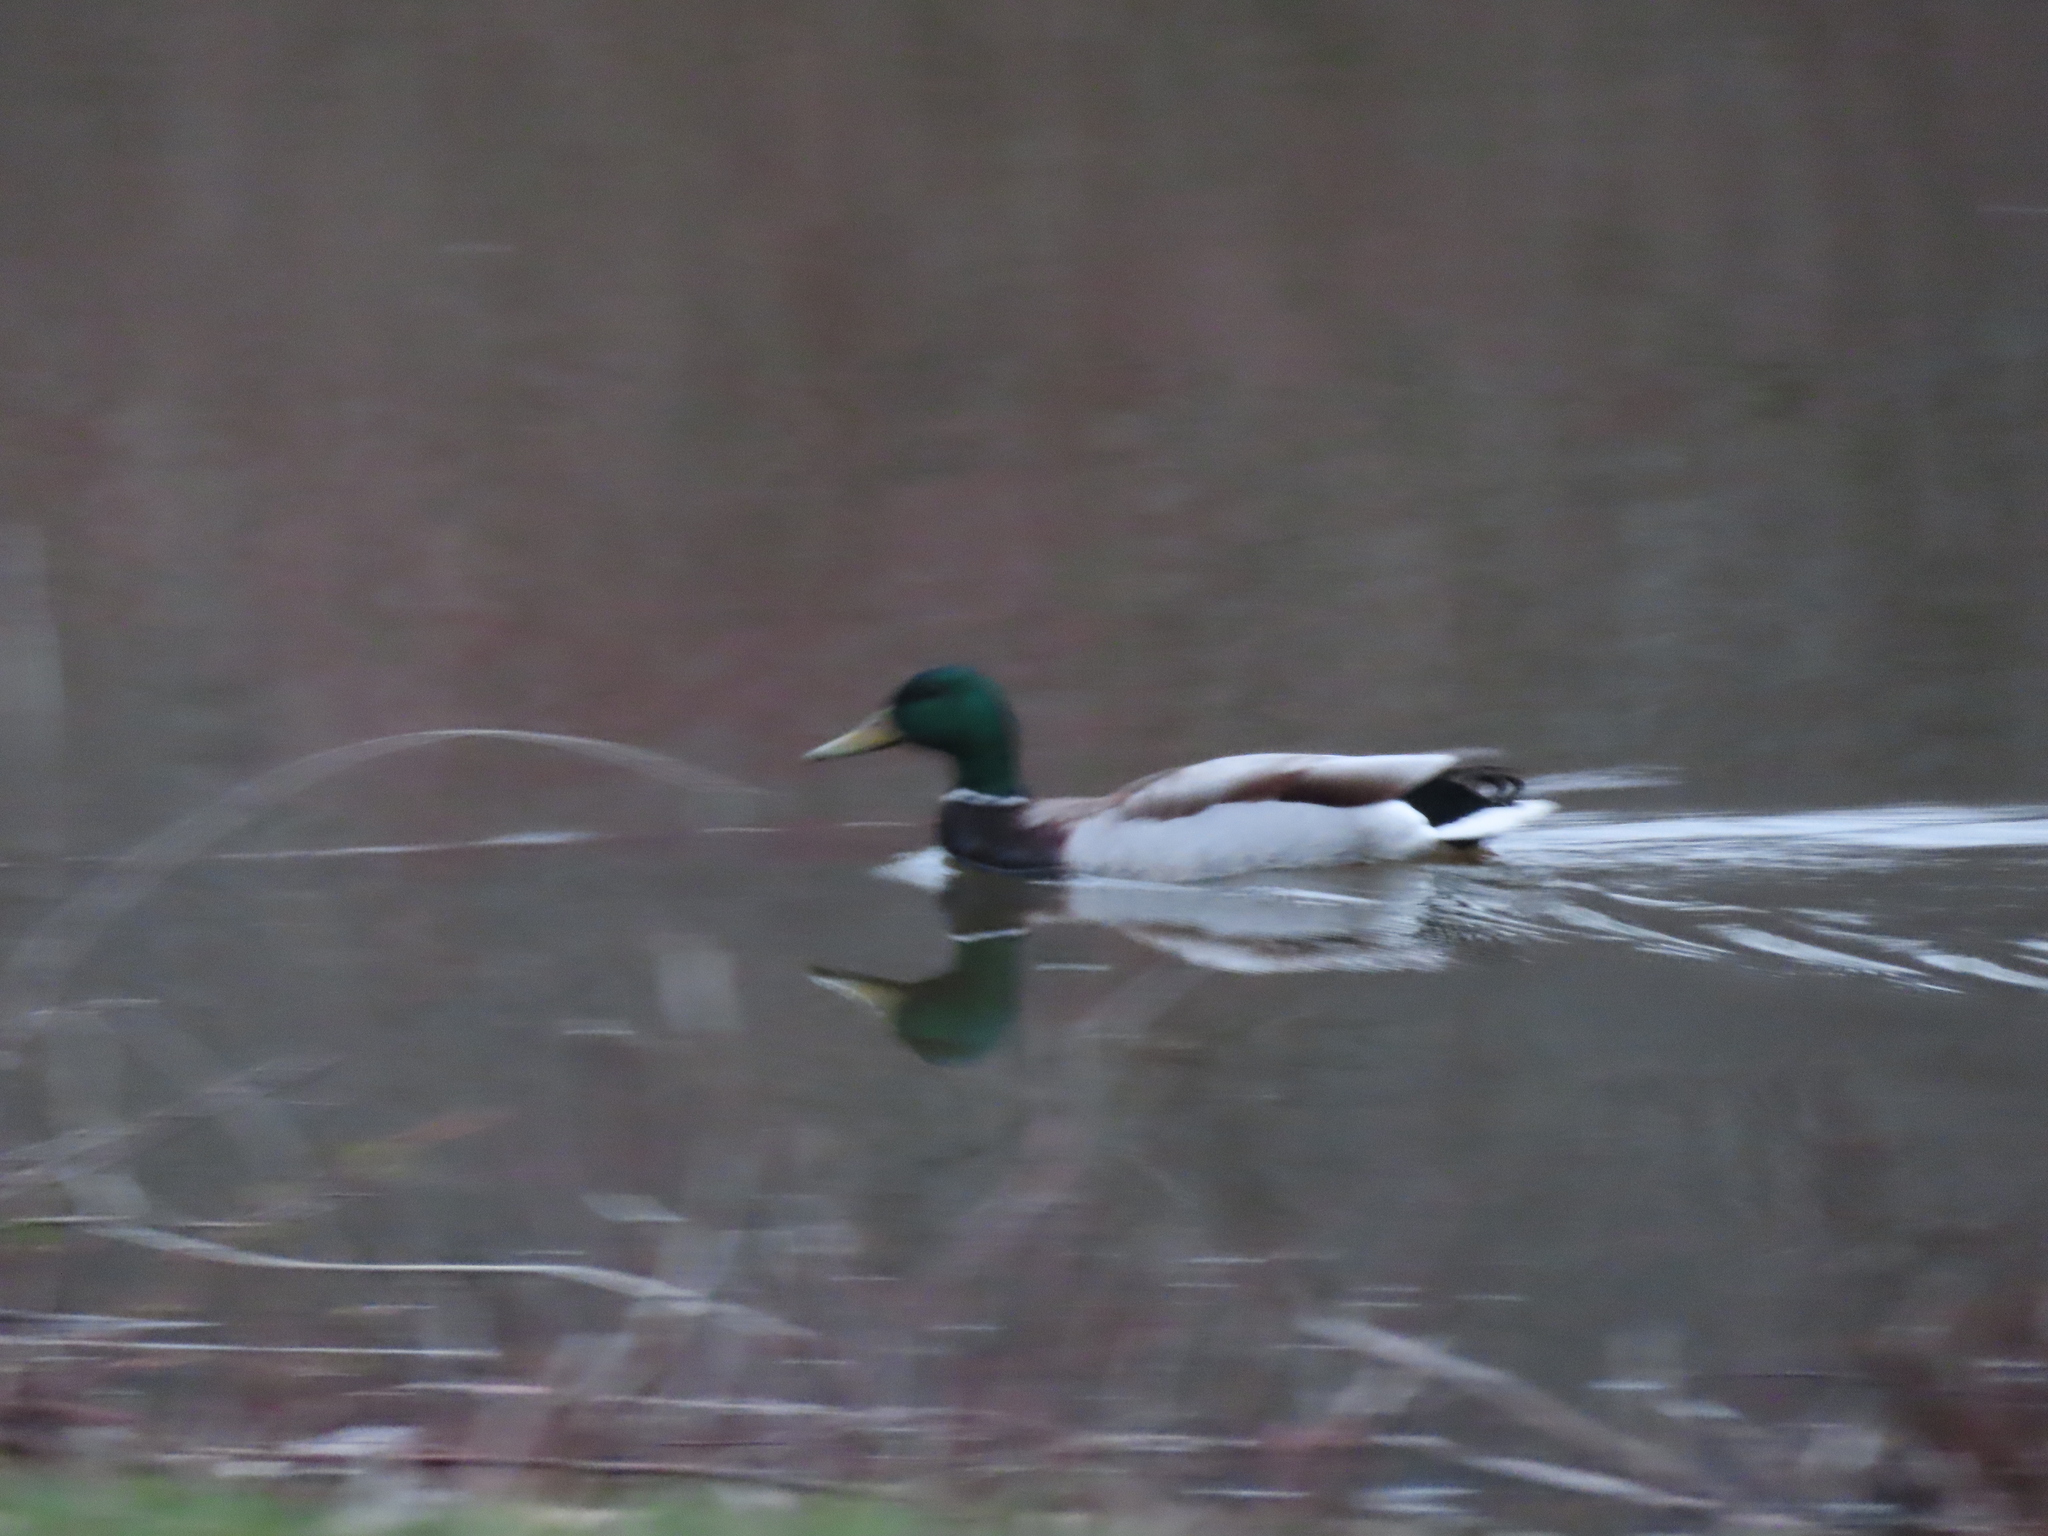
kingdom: Animalia
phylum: Chordata
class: Aves
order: Anseriformes
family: Anatidae
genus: Anas
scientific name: Anas platyrhynchos
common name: Mallard
